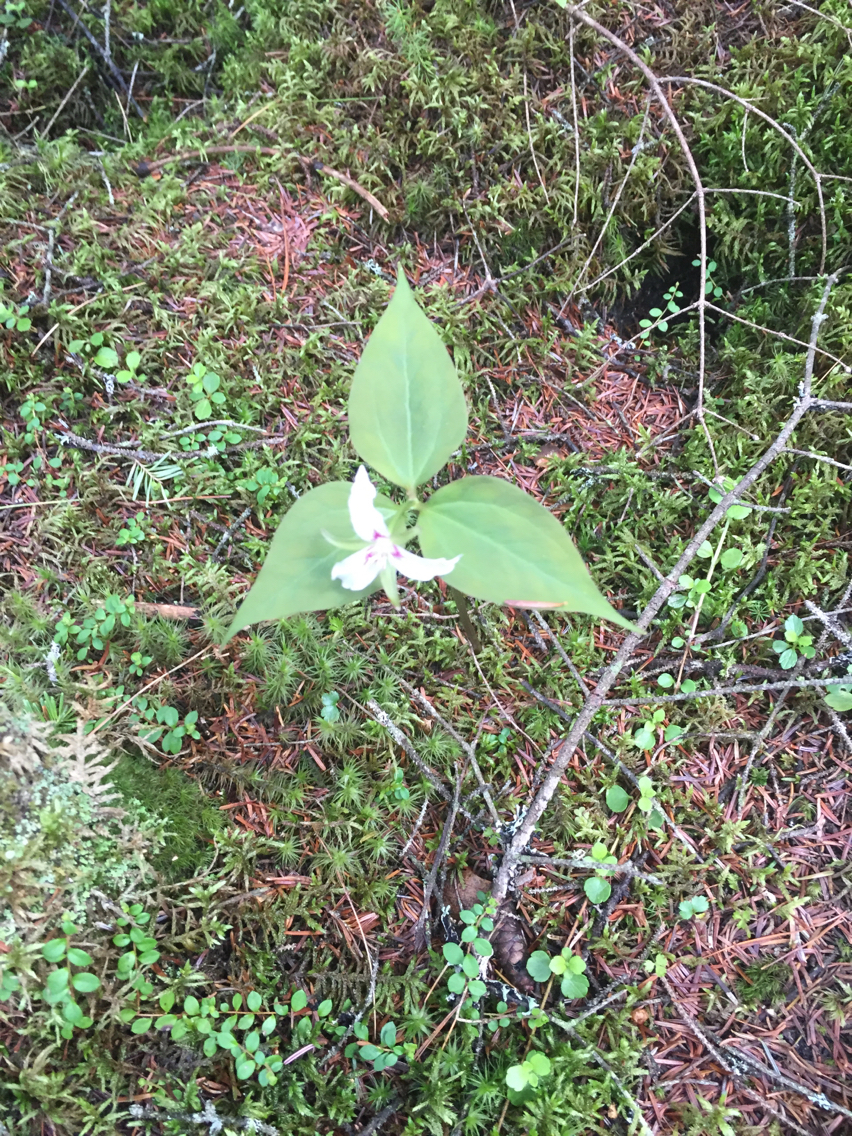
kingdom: Plantae
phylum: Tracheophyta
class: Liliopsida
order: Liliales
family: Melanthiaceae
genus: Trillium
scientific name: Trillium undulatum
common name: Paint trillium
